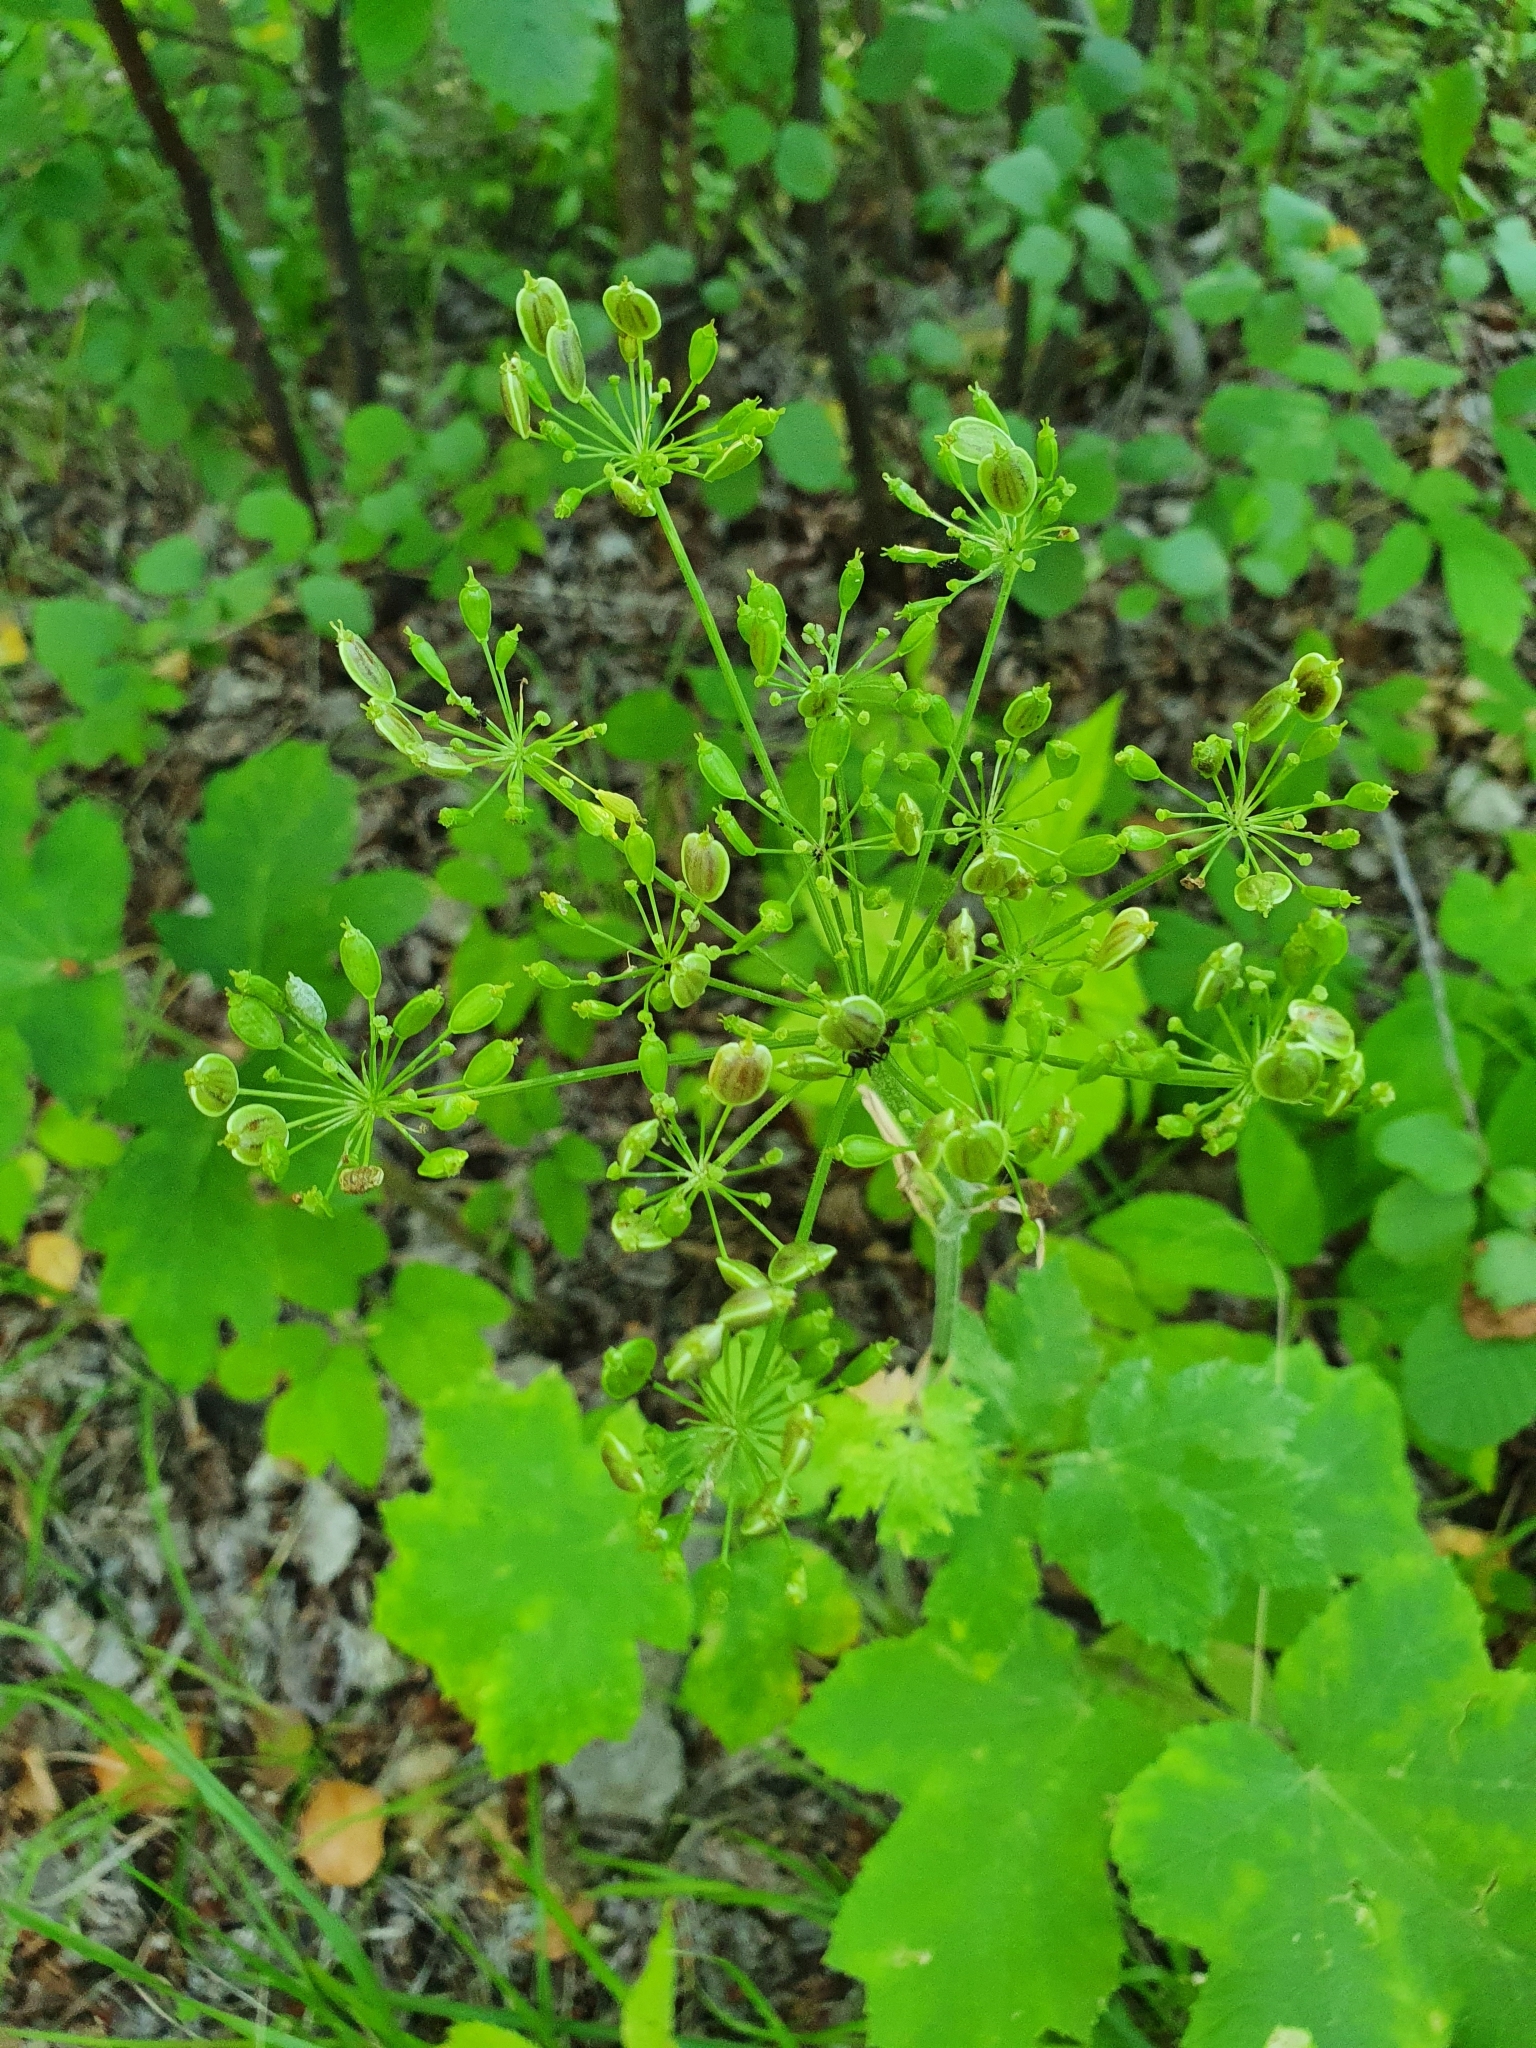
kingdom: Plantae
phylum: Tracheophyta
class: Magnoliopsida
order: Apiales
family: Apiaceae
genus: Heracleum
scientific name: Heracleum sphondylium
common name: Hogweed
